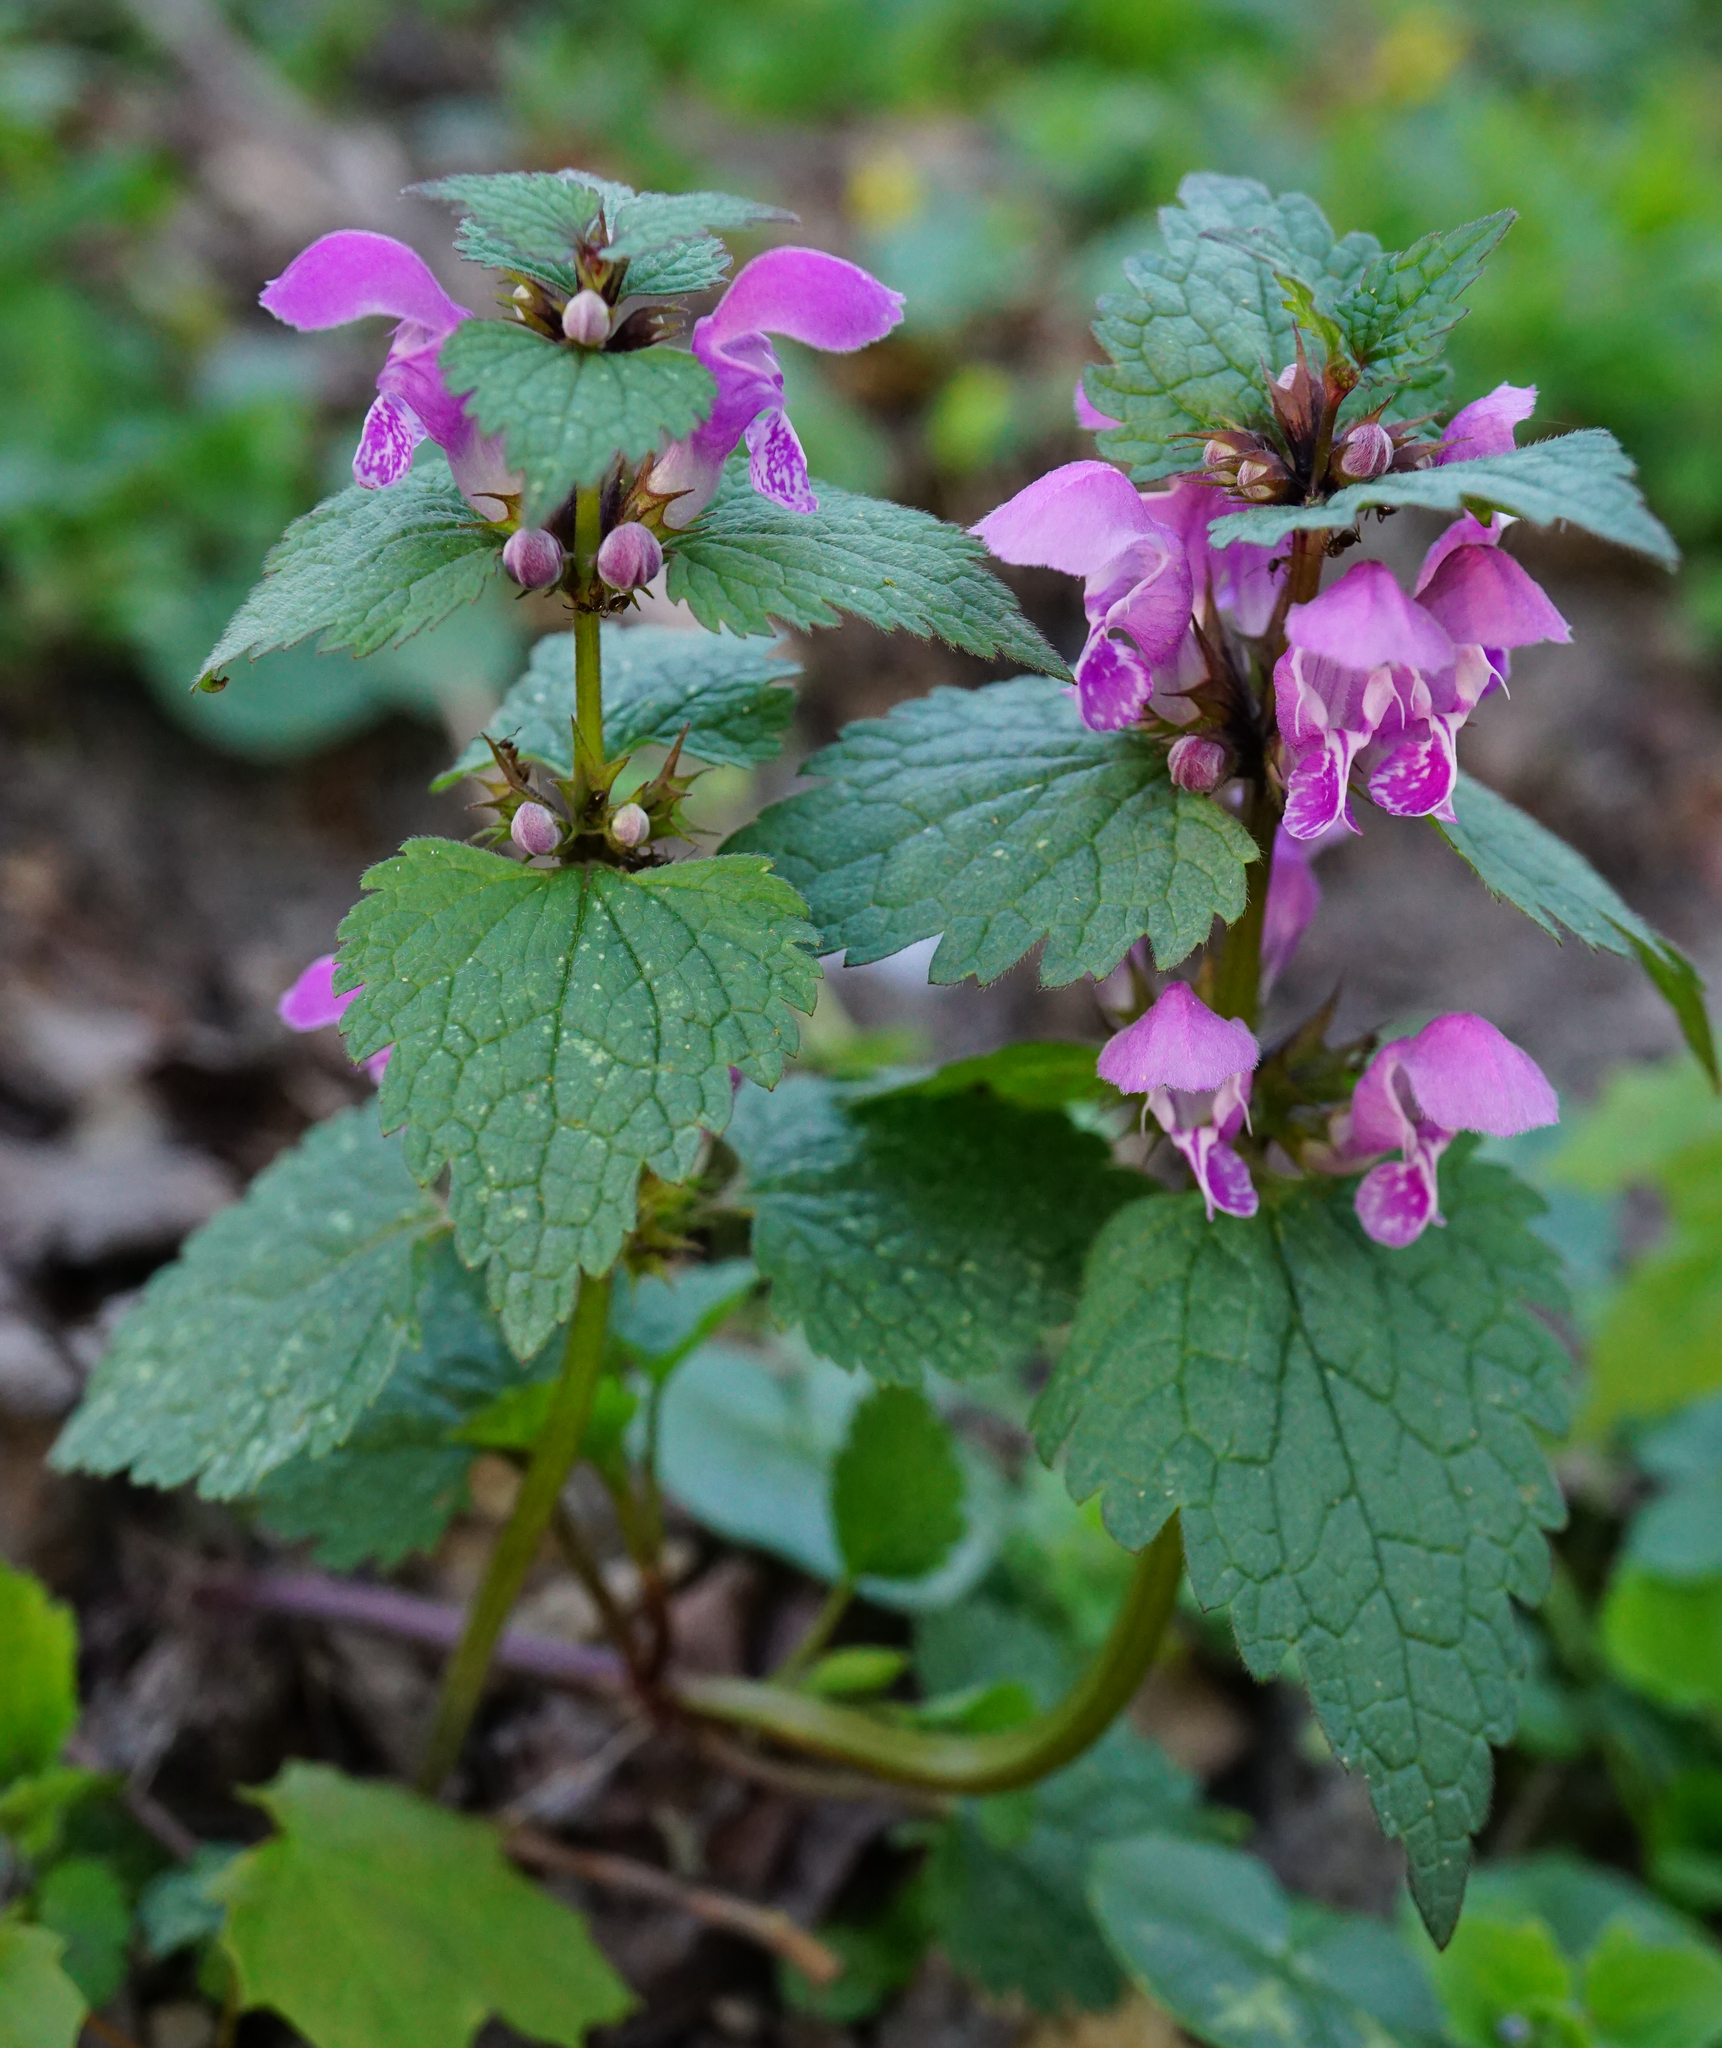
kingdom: Plantae
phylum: Tracheophyta
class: Magnoliopsida
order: Lamiales
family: Lamiaceae
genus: Lamium
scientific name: Lamium maculatum
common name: Spotted dead-nettle
